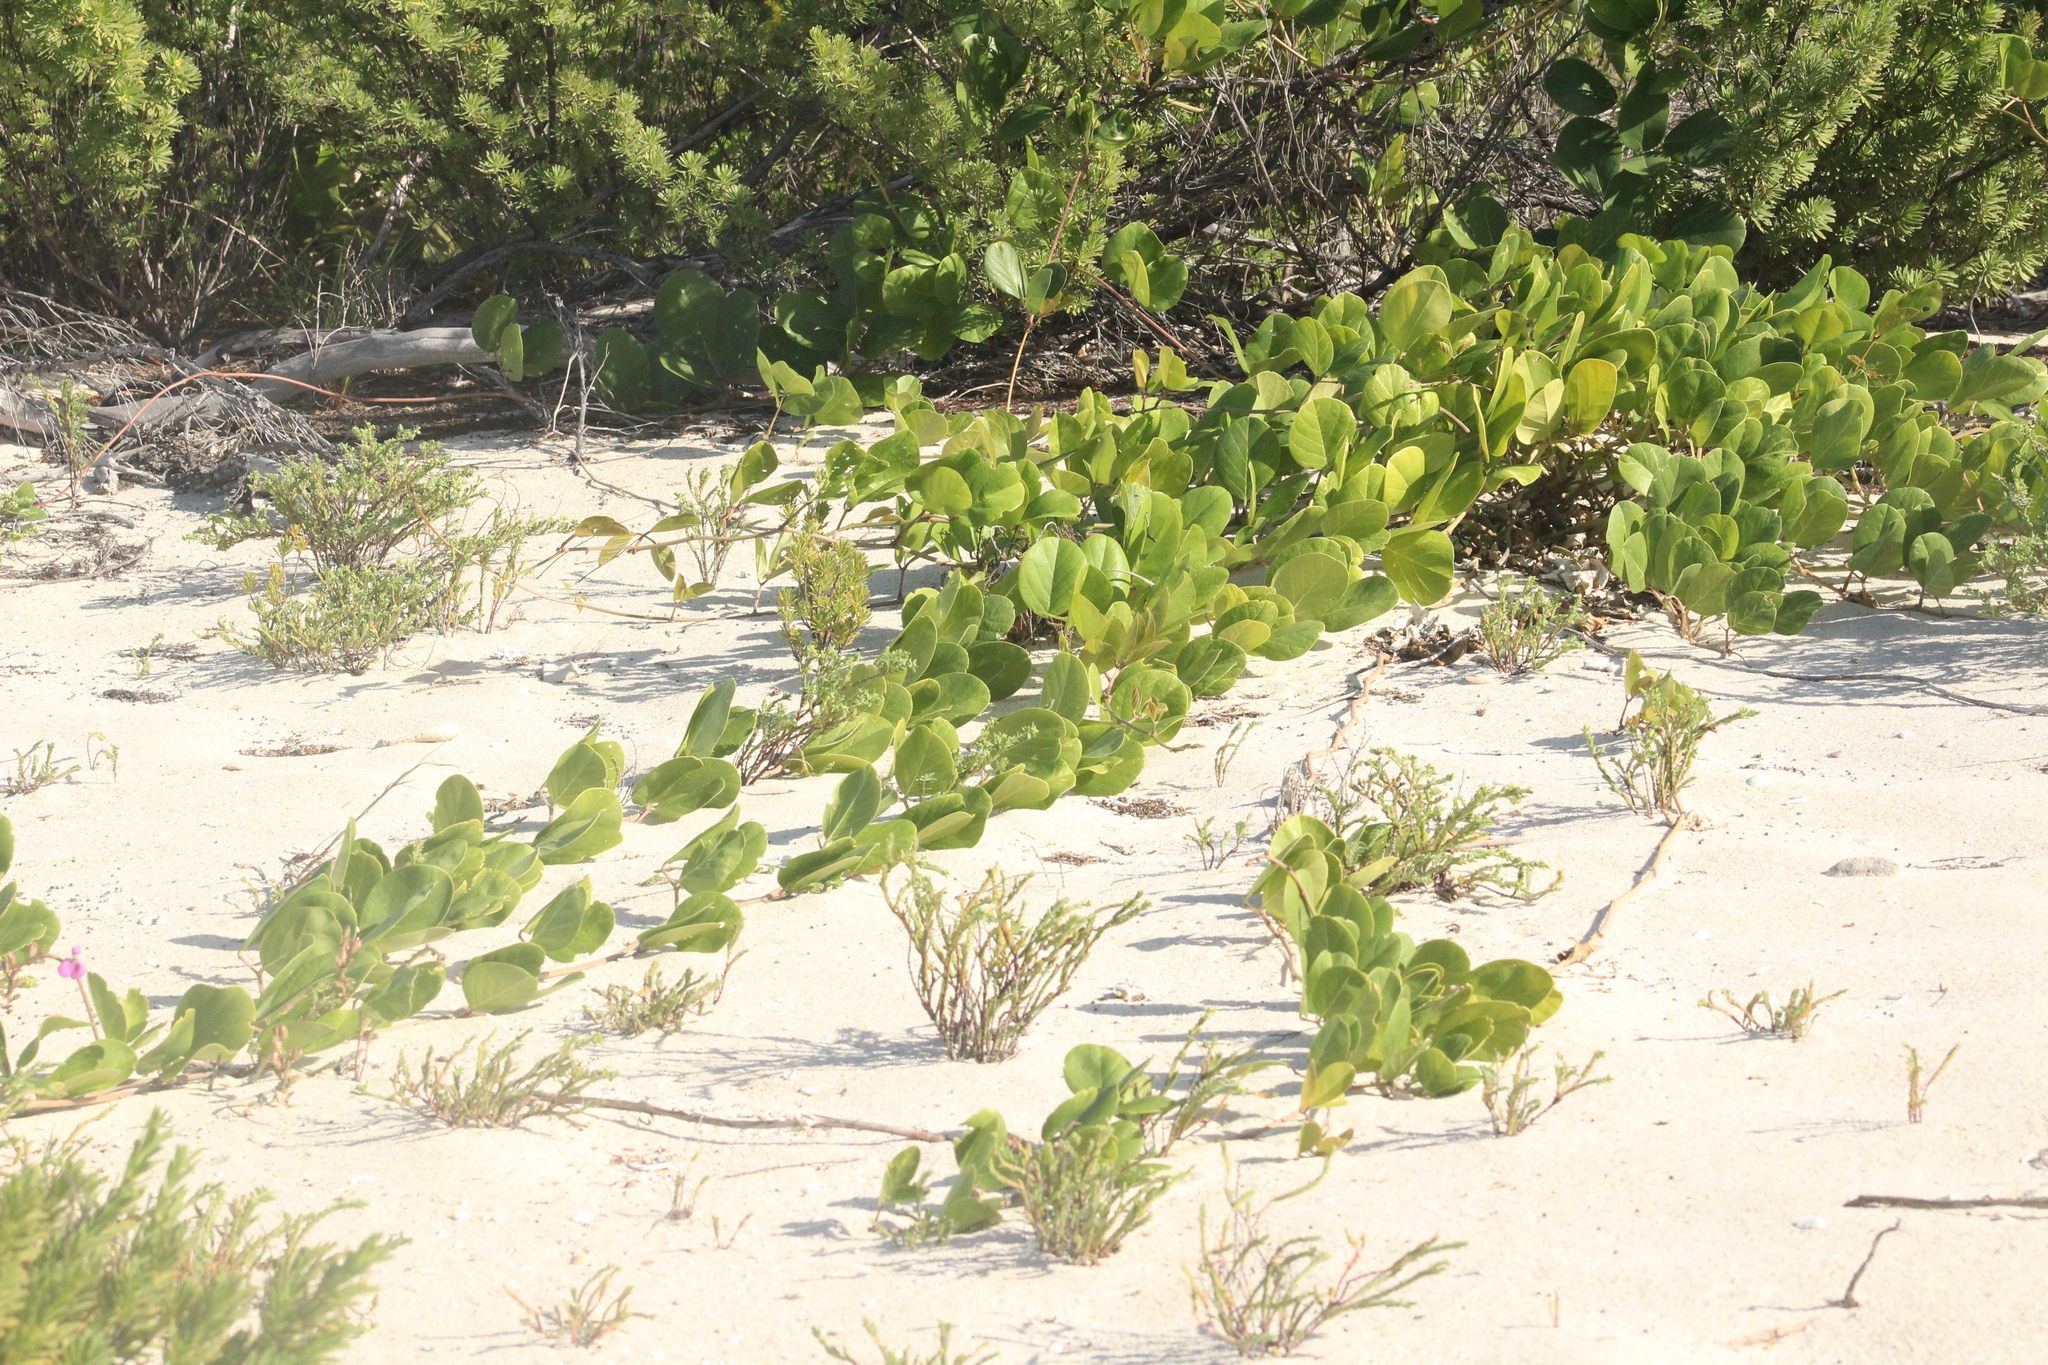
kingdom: Plantae
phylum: Tracheophyta
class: Magnoliopsida
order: Fabales
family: Fabaceae
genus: Canavalia
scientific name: Canavalia rosea
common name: Beach-bean
